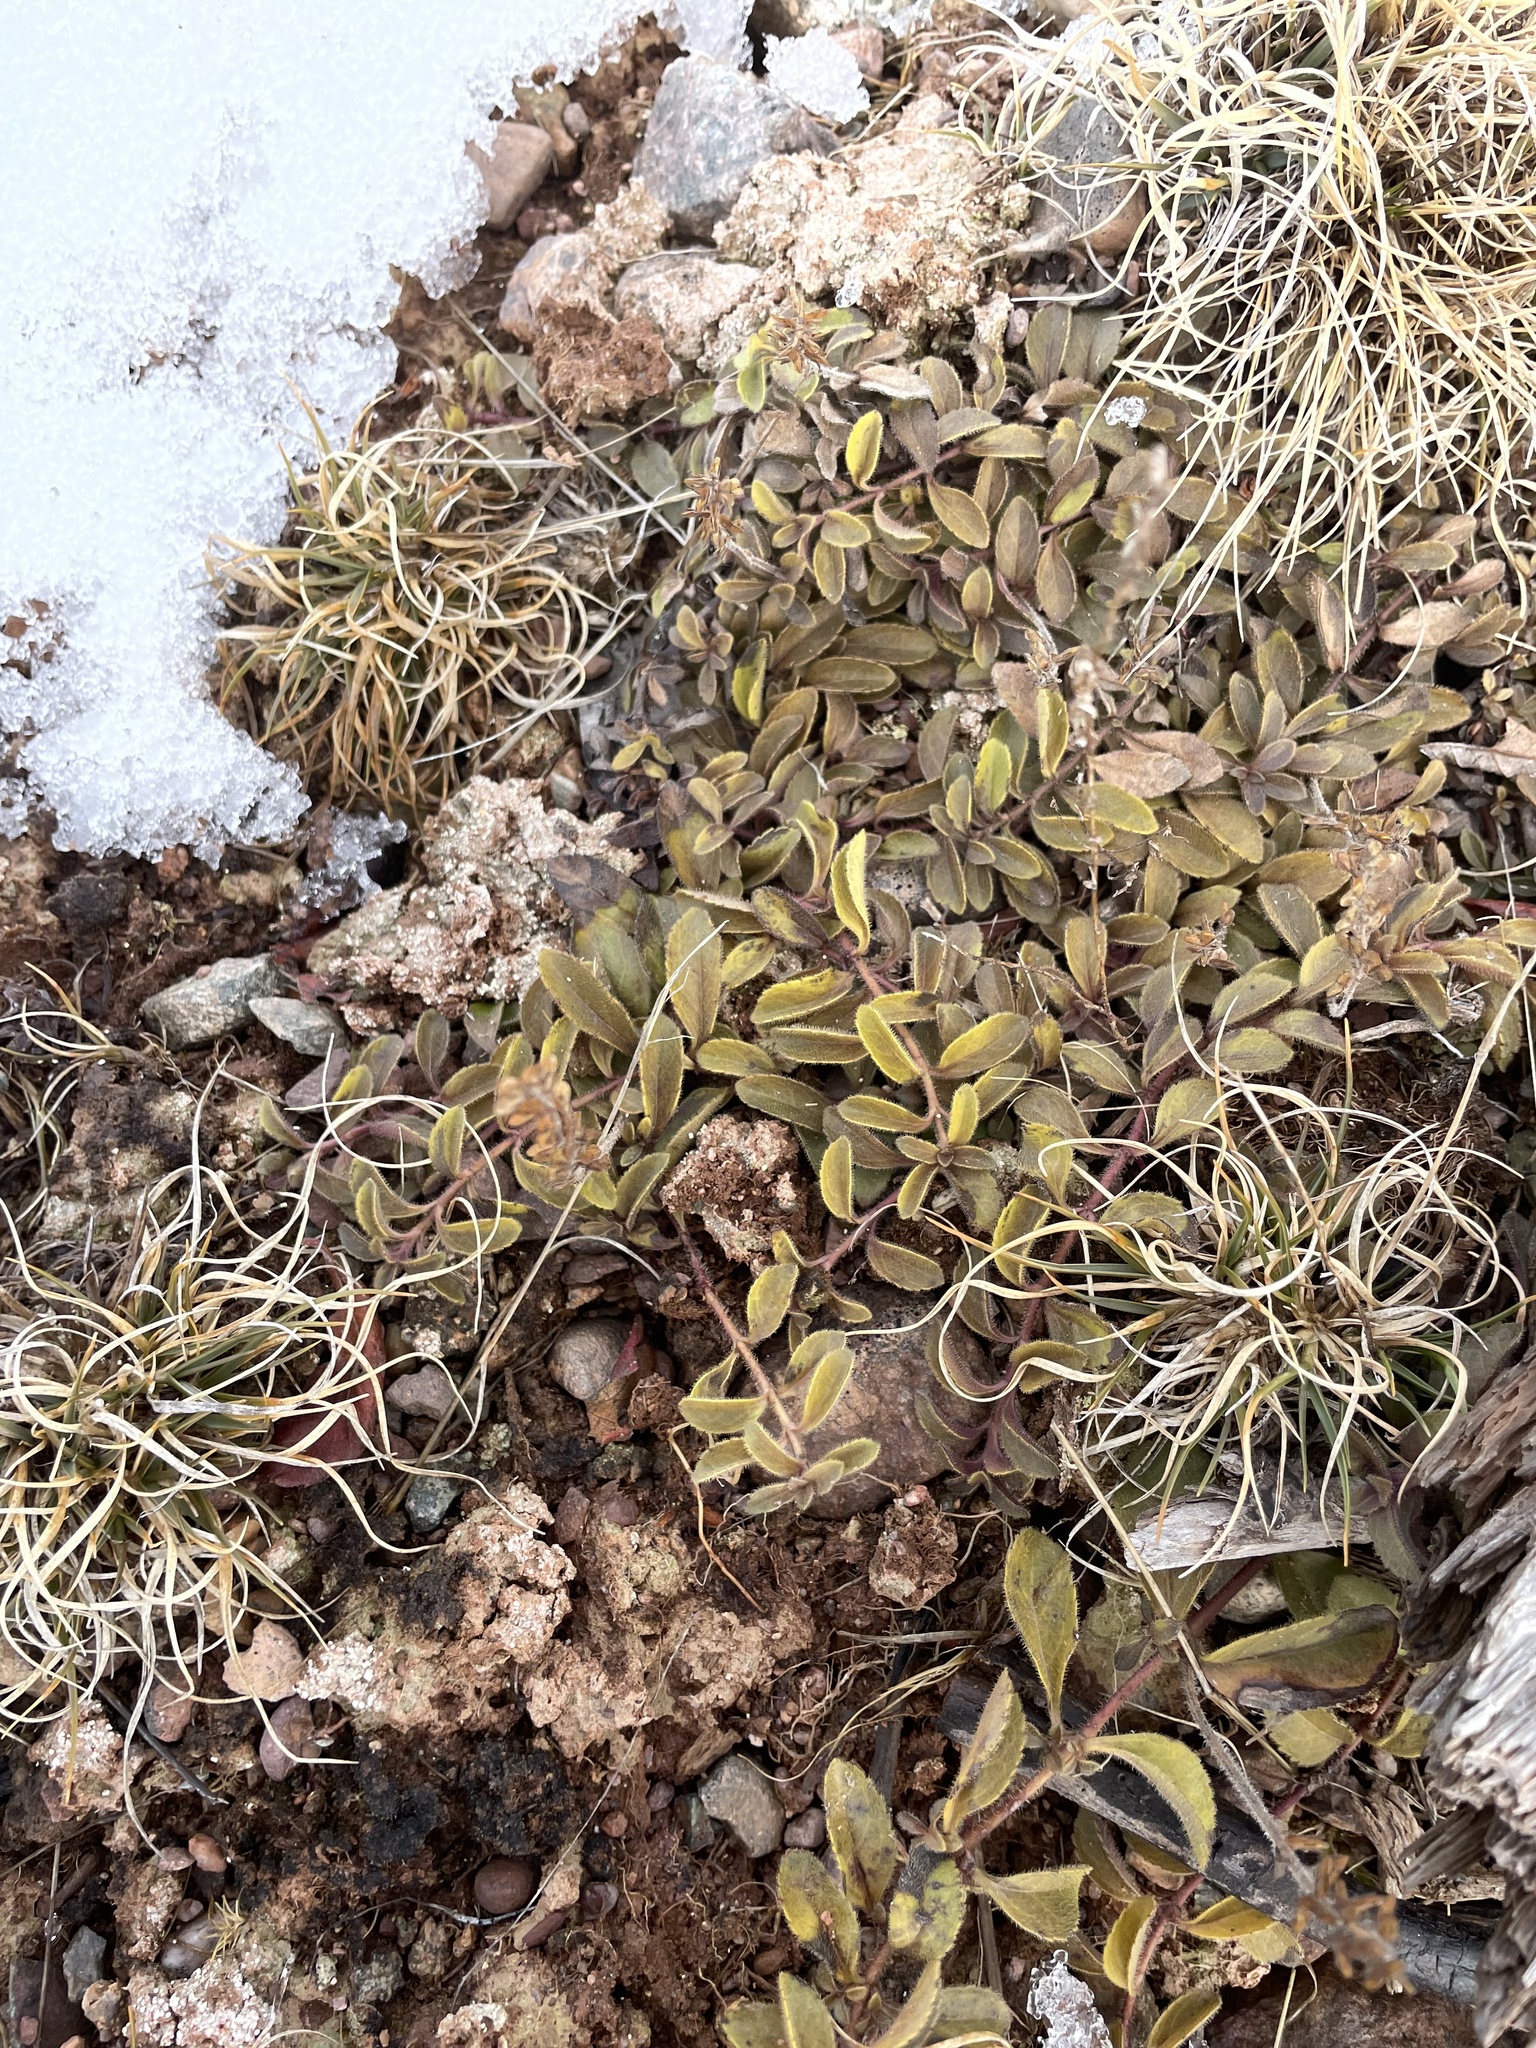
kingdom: Plantae
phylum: Tracheophyta
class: Magnoliopsida
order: Lamiales
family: Plantaginaceae
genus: Veronica
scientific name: Veronica officinalis
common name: Common speedwell
